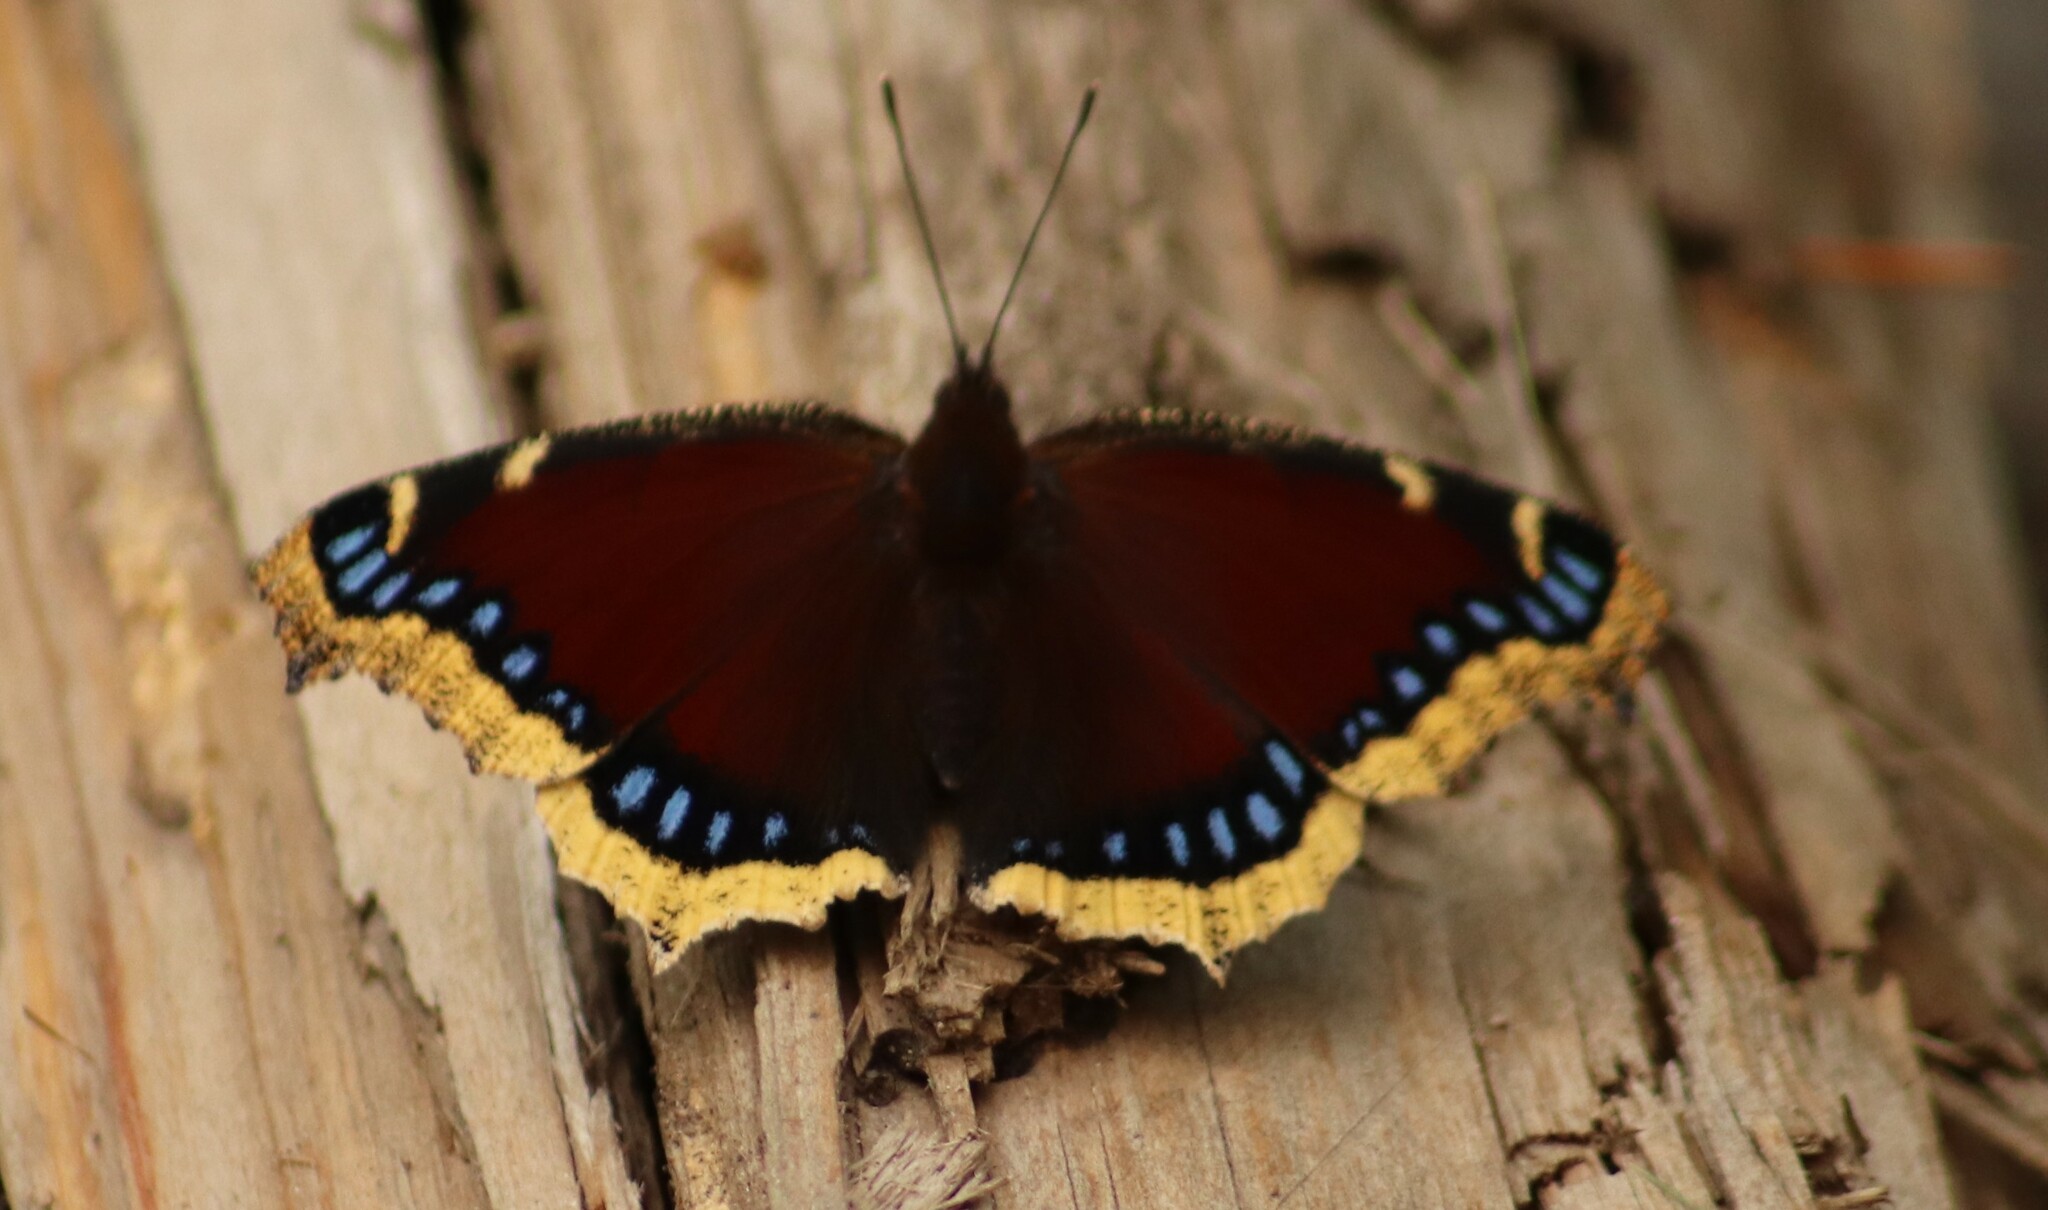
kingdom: Animalia
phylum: Arthropoda
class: Insecta
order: Lepidoptera
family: Nymphalidae
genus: Nymphalis
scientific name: Nymphalis antiopa
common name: Camberwell beauty
